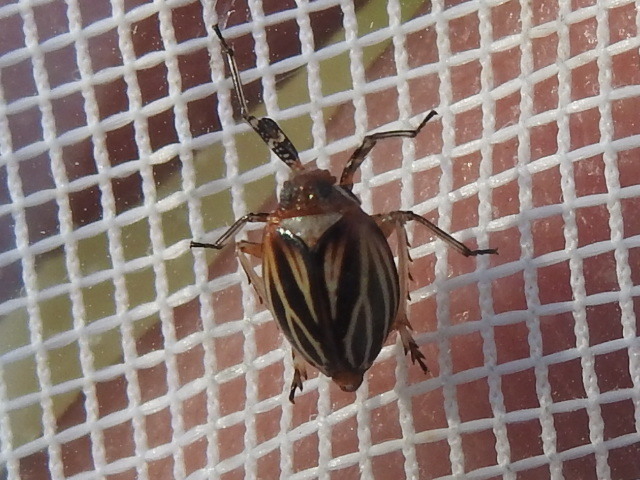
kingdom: Animalia
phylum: Arthropoda
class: Insecta
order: Hemiptera
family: Achilidae
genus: Isodaemon
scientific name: Isodaemon orontes
